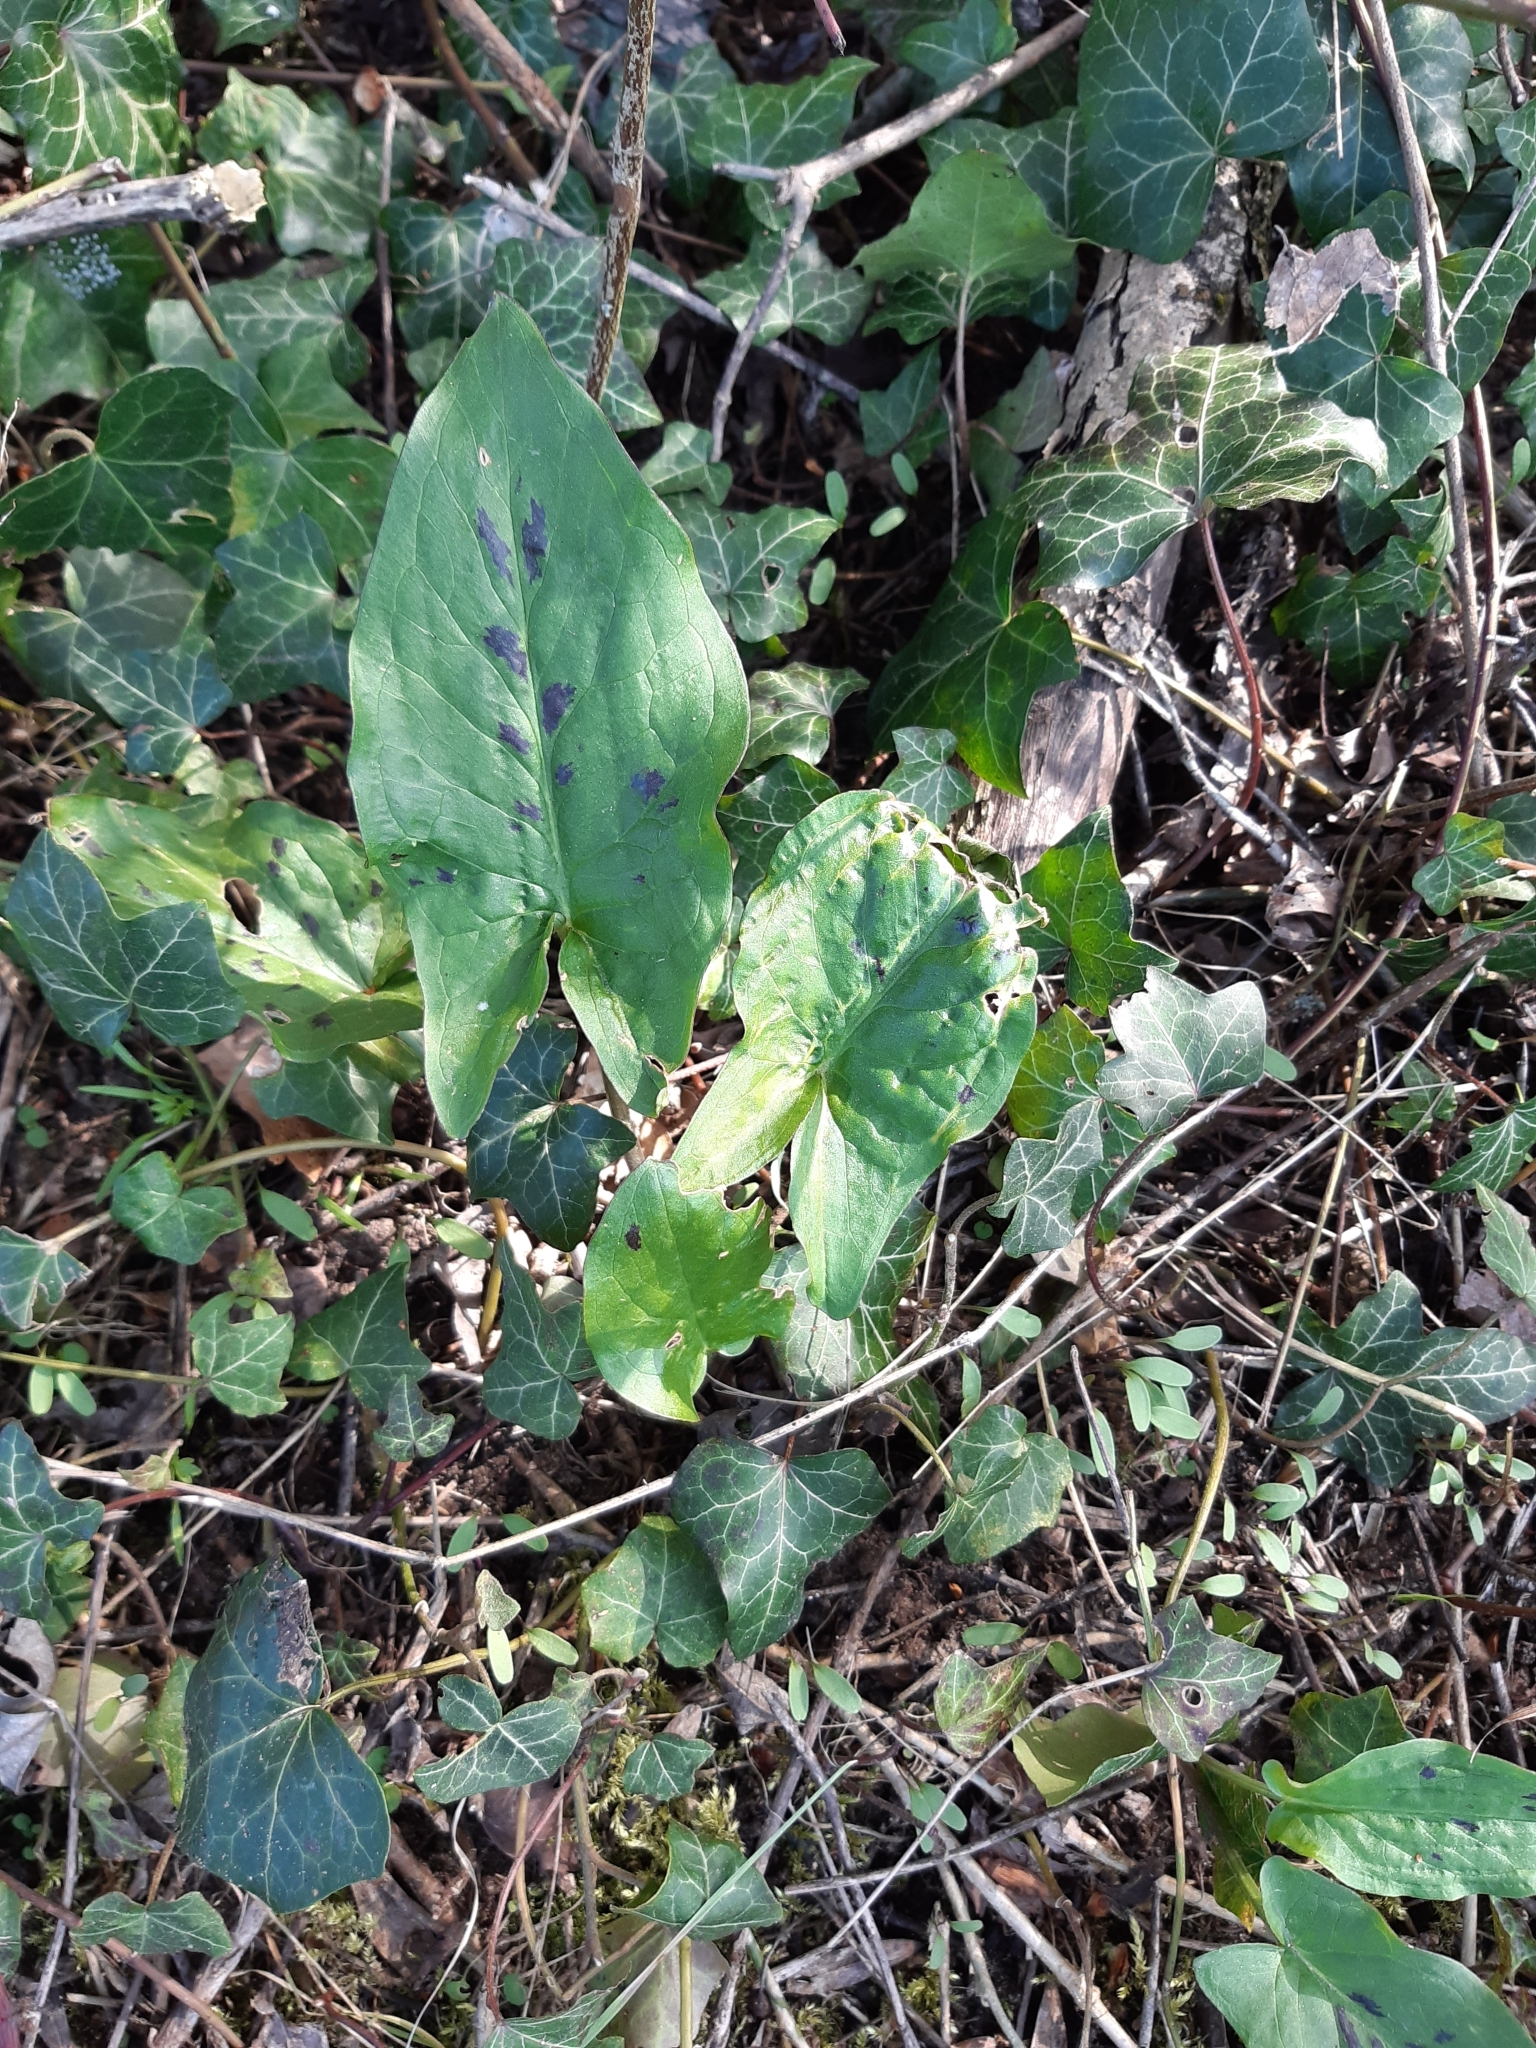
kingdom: Plantae
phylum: Tracheophyta
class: Liliopsida
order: Alismatales
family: Araceae
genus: Arum
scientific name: Arum maculatum
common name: Lords-and-ladies
